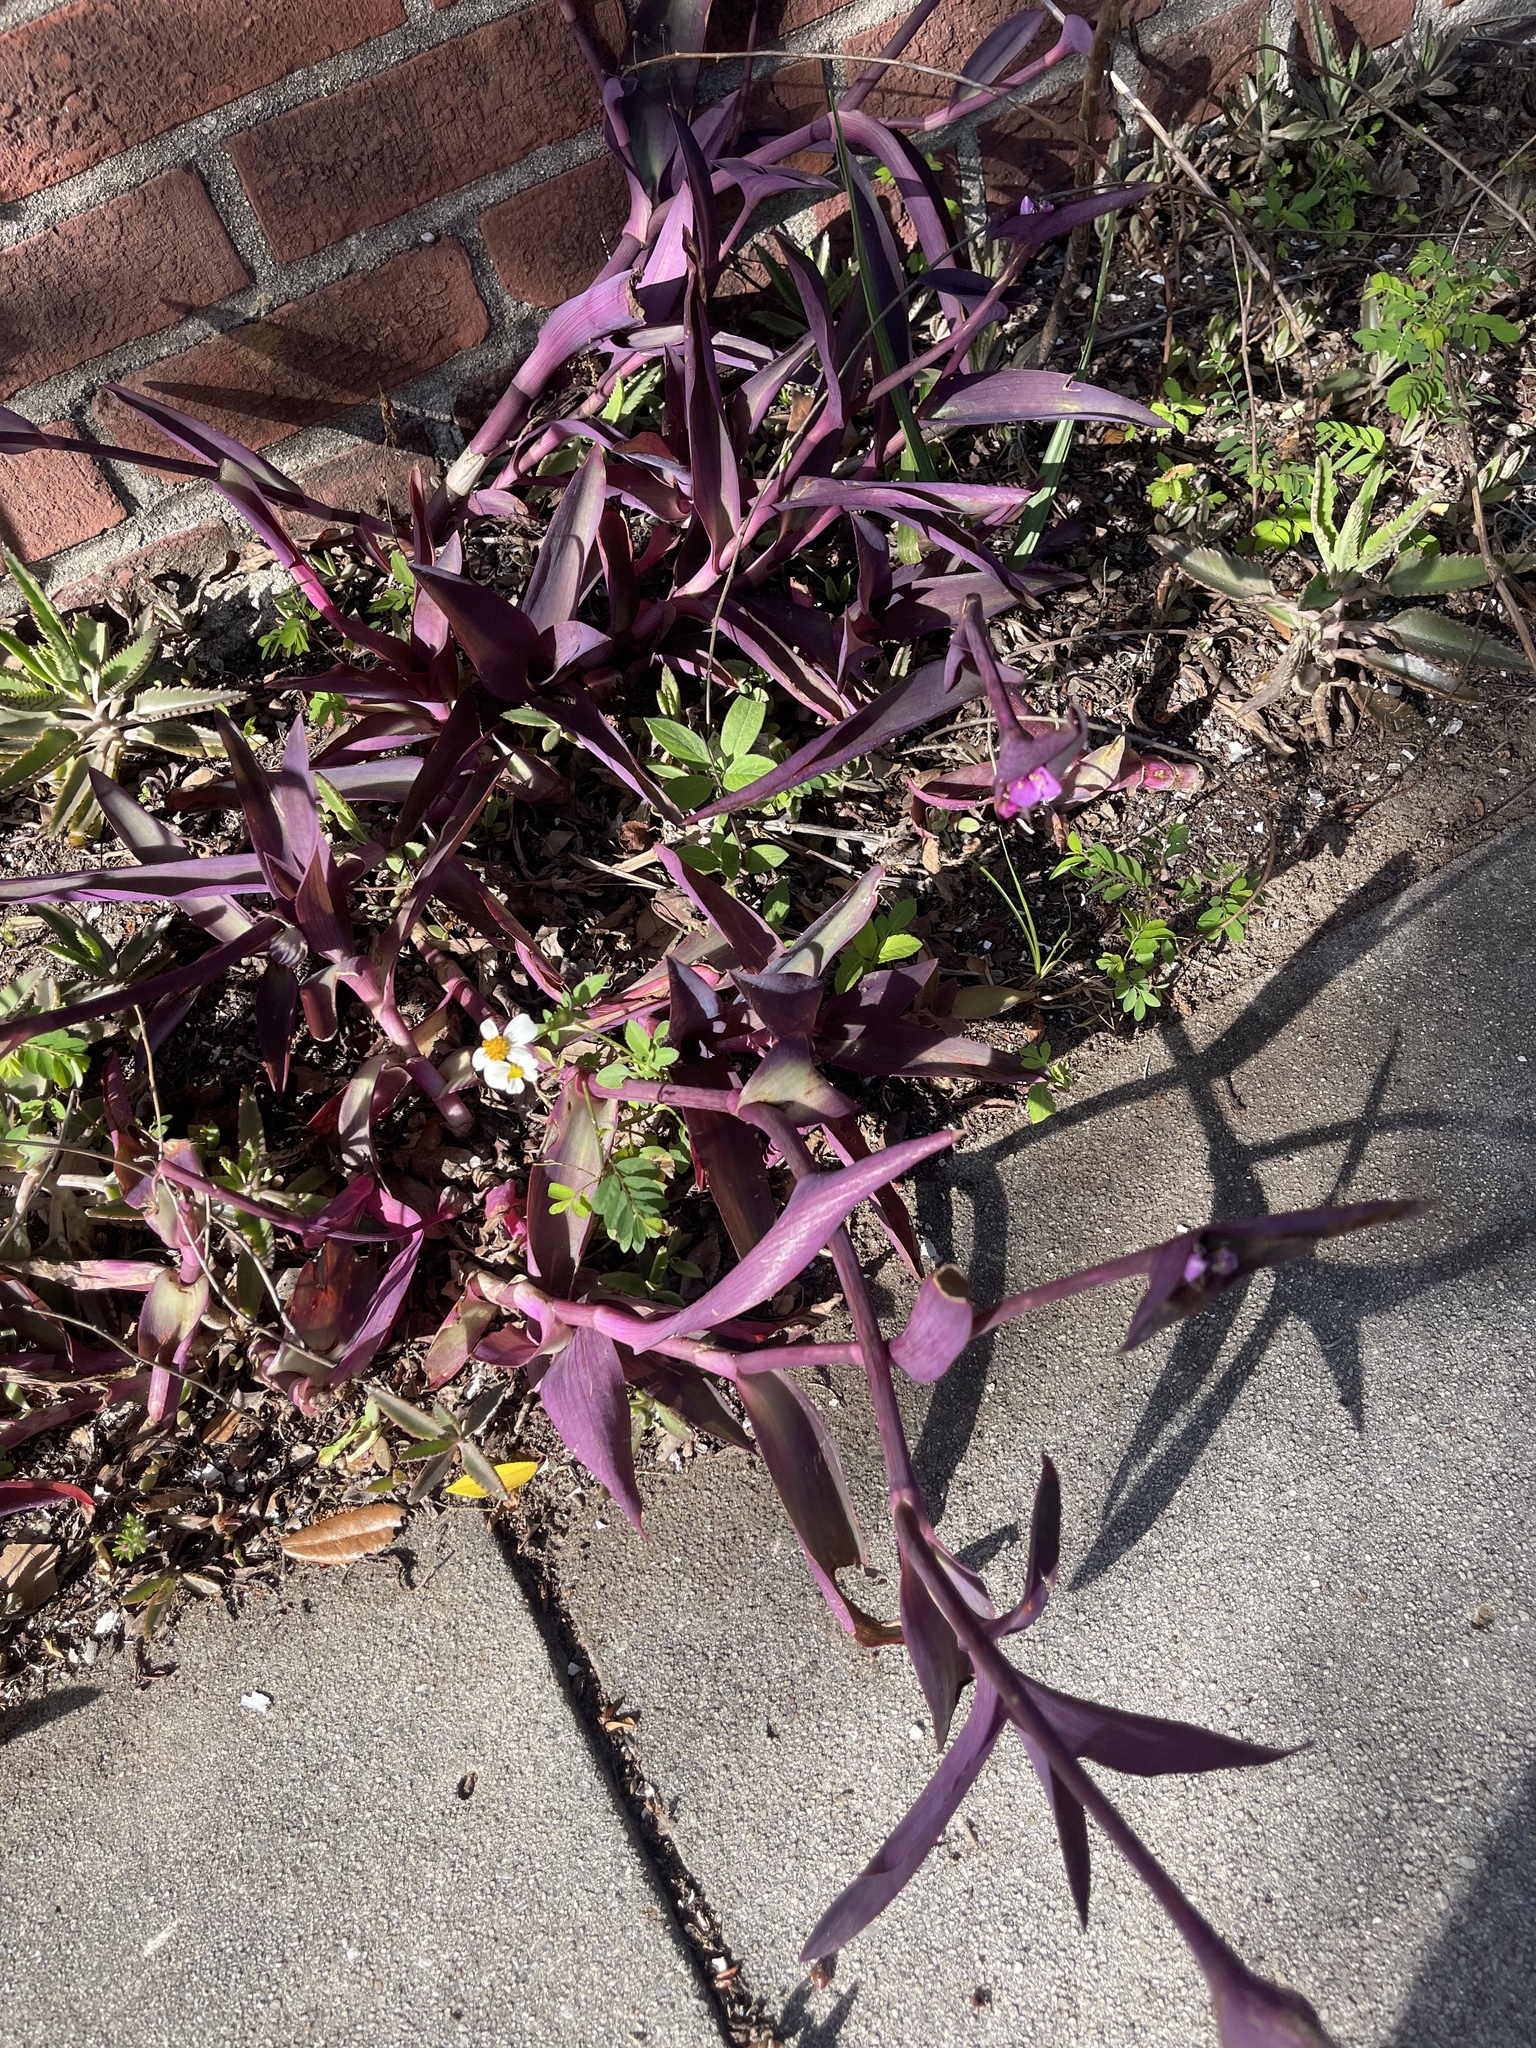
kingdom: Plantae
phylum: Tracheophyta
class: Liliopsida
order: Commelinales
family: Commelinaceae
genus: Tradescantia
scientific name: Tradescantia pallida
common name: Purpleheart
